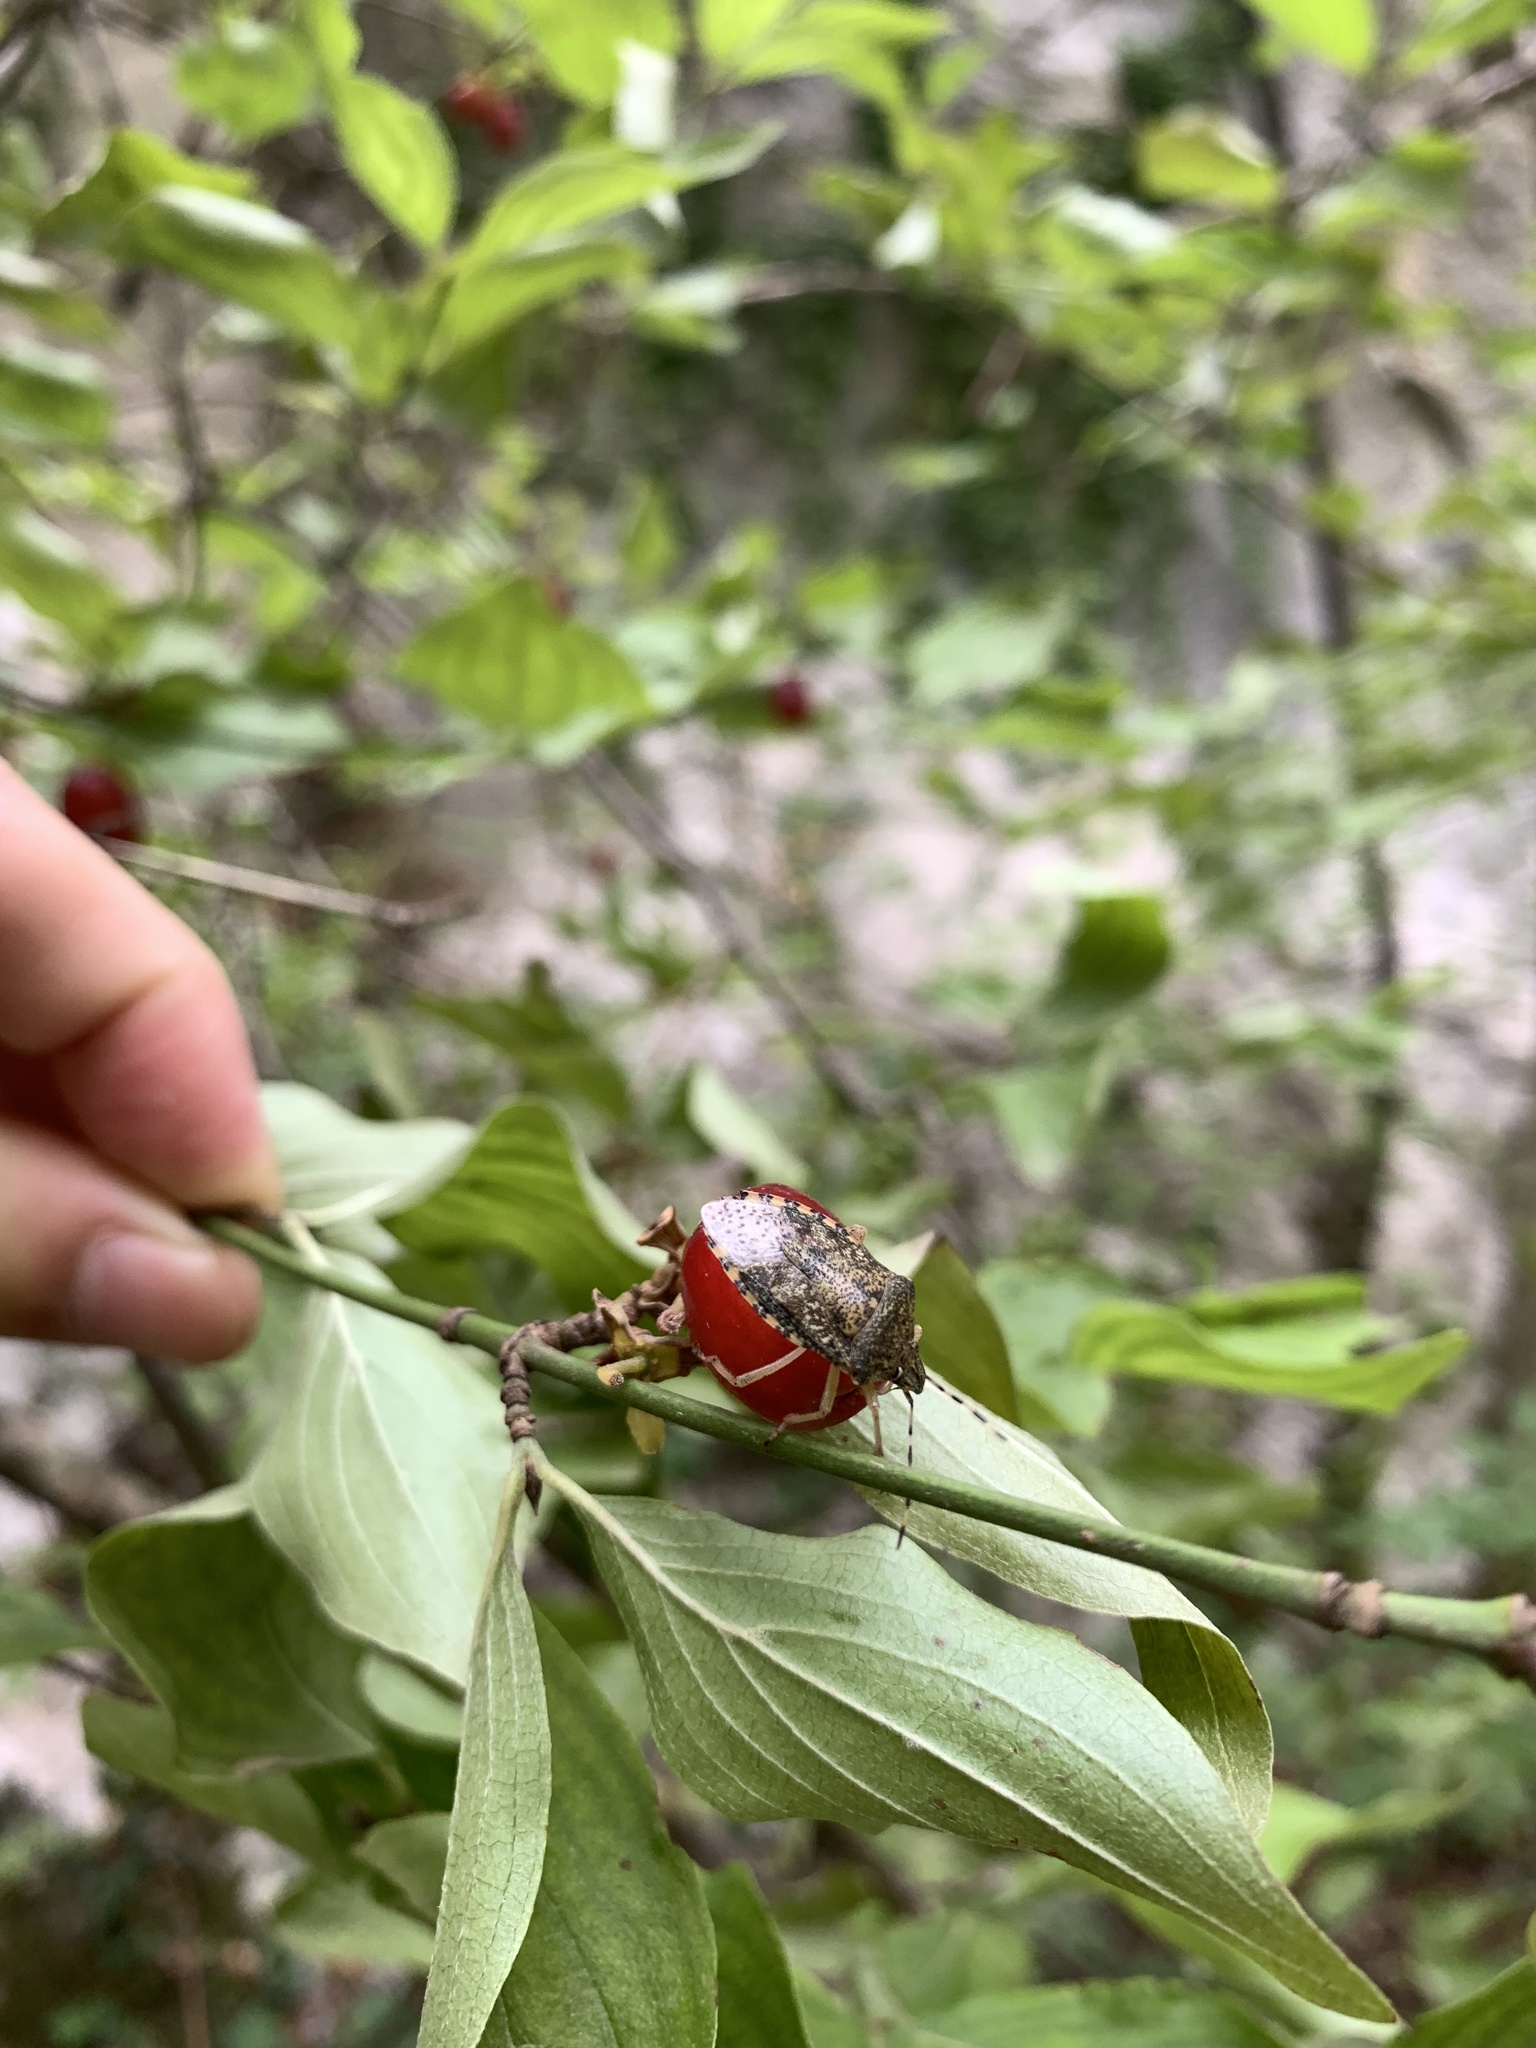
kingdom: Animalia
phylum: Arthropoda
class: Insecta
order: Hemiptera
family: Pentatomidae
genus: Rhaphigaster
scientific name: Rhaphigaster nebulosa
